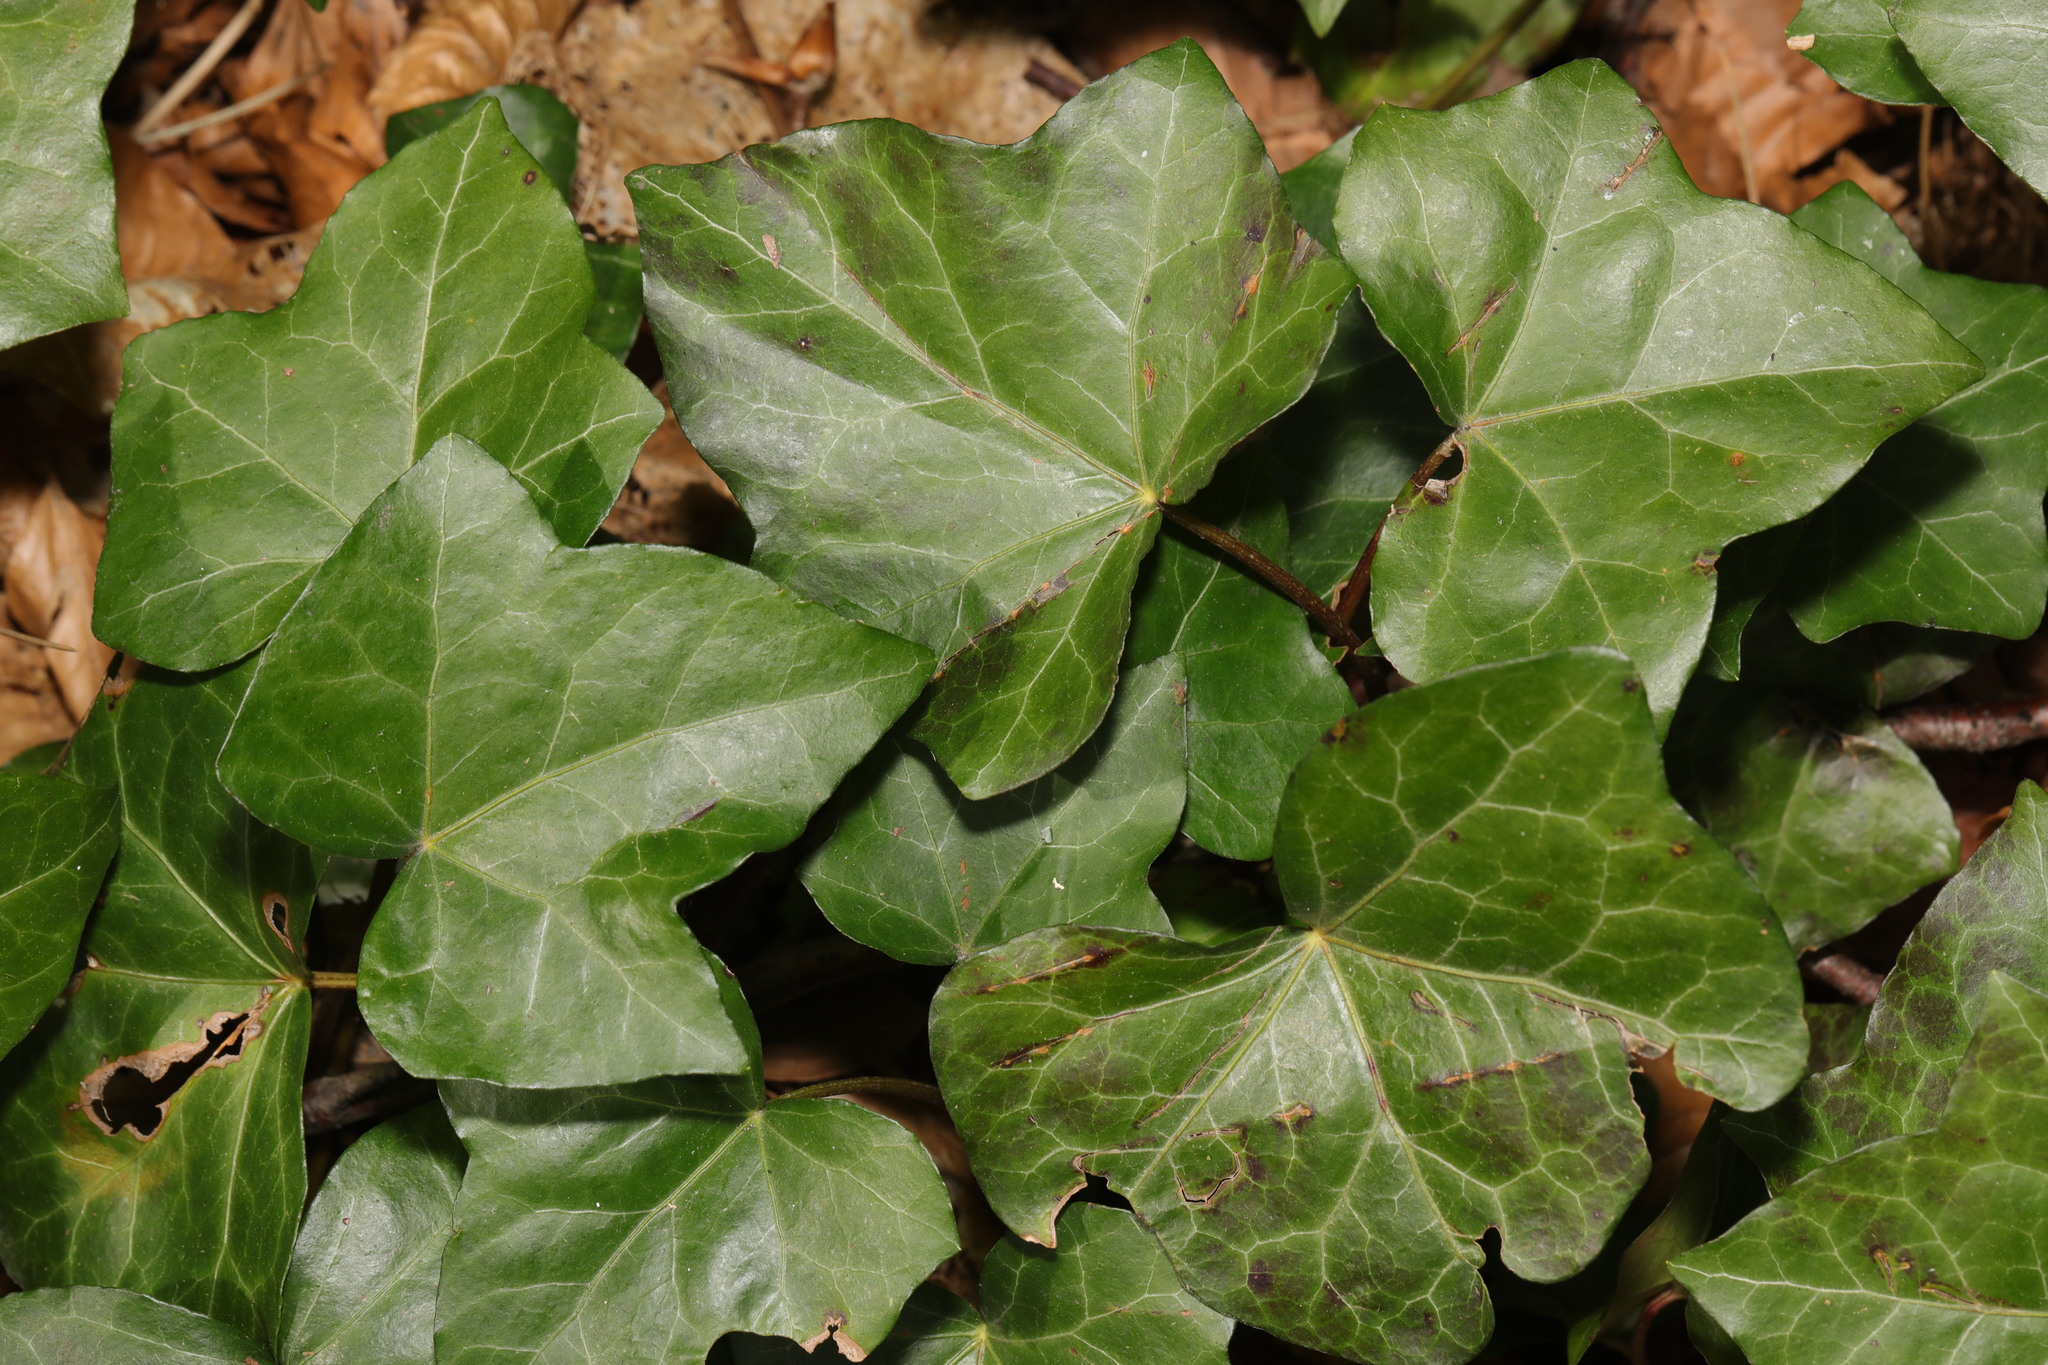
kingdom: Plantae
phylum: Tracheophyta
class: Magnoliopsida
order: Apiales
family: Araliaceae
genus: Hedera
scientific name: Hedera helix
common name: Ivy
